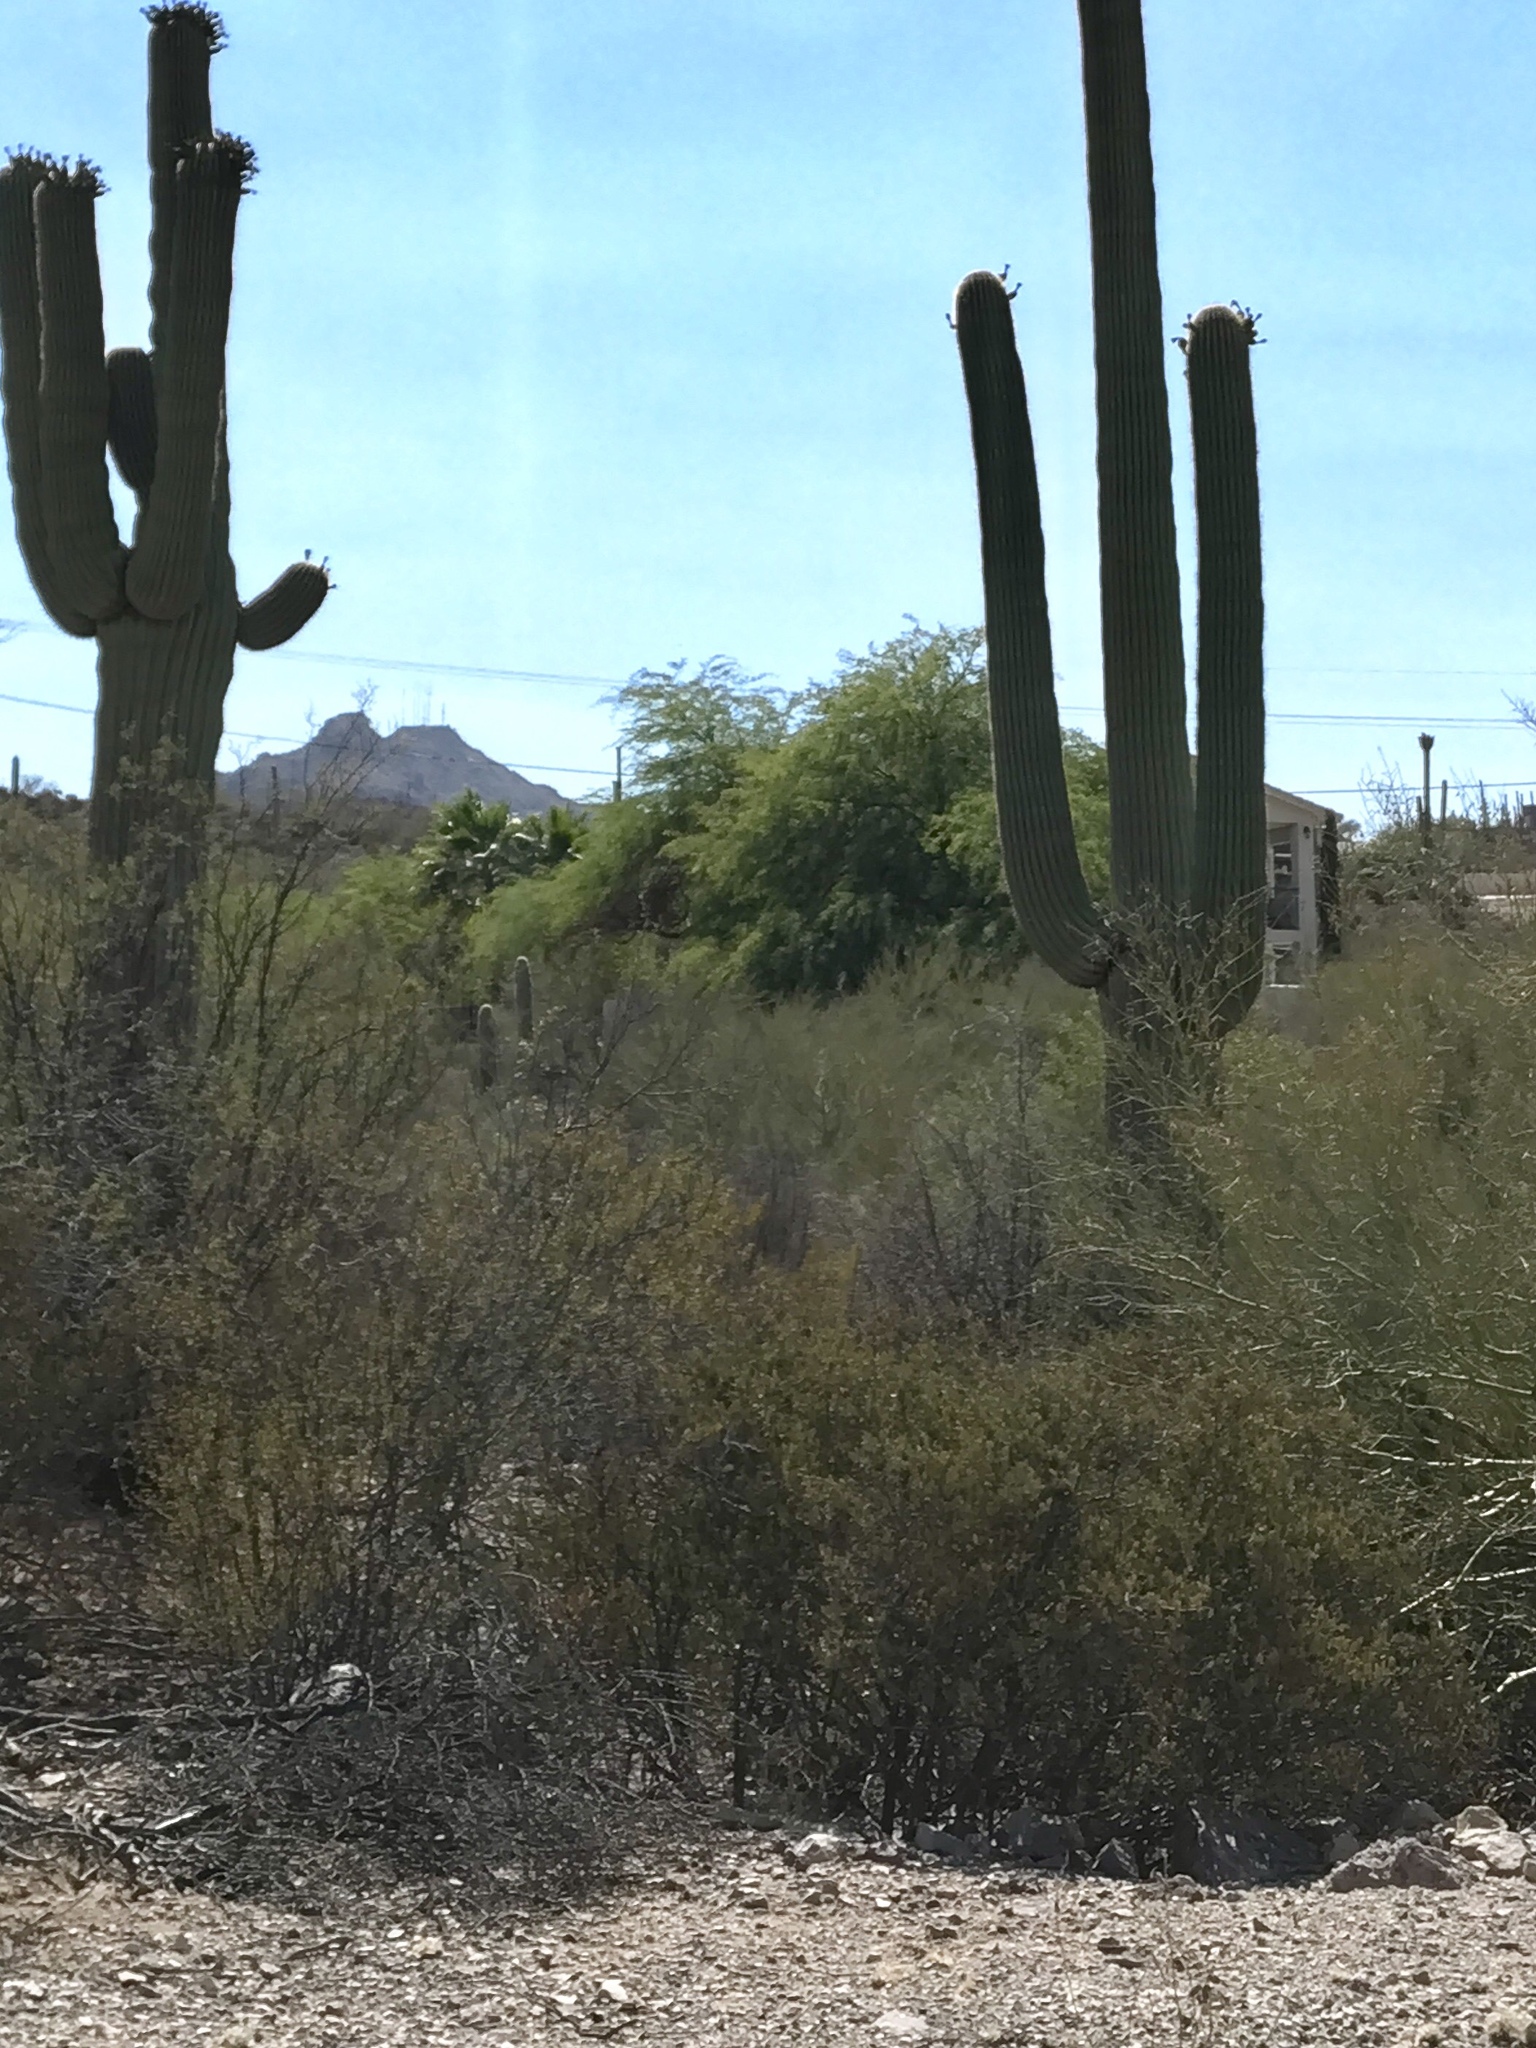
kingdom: Plantae
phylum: Tracheophyta
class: Magnoliopsida
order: Zygophyllales
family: Zygophyllaceae
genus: Larrea
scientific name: Larrea tridentata
